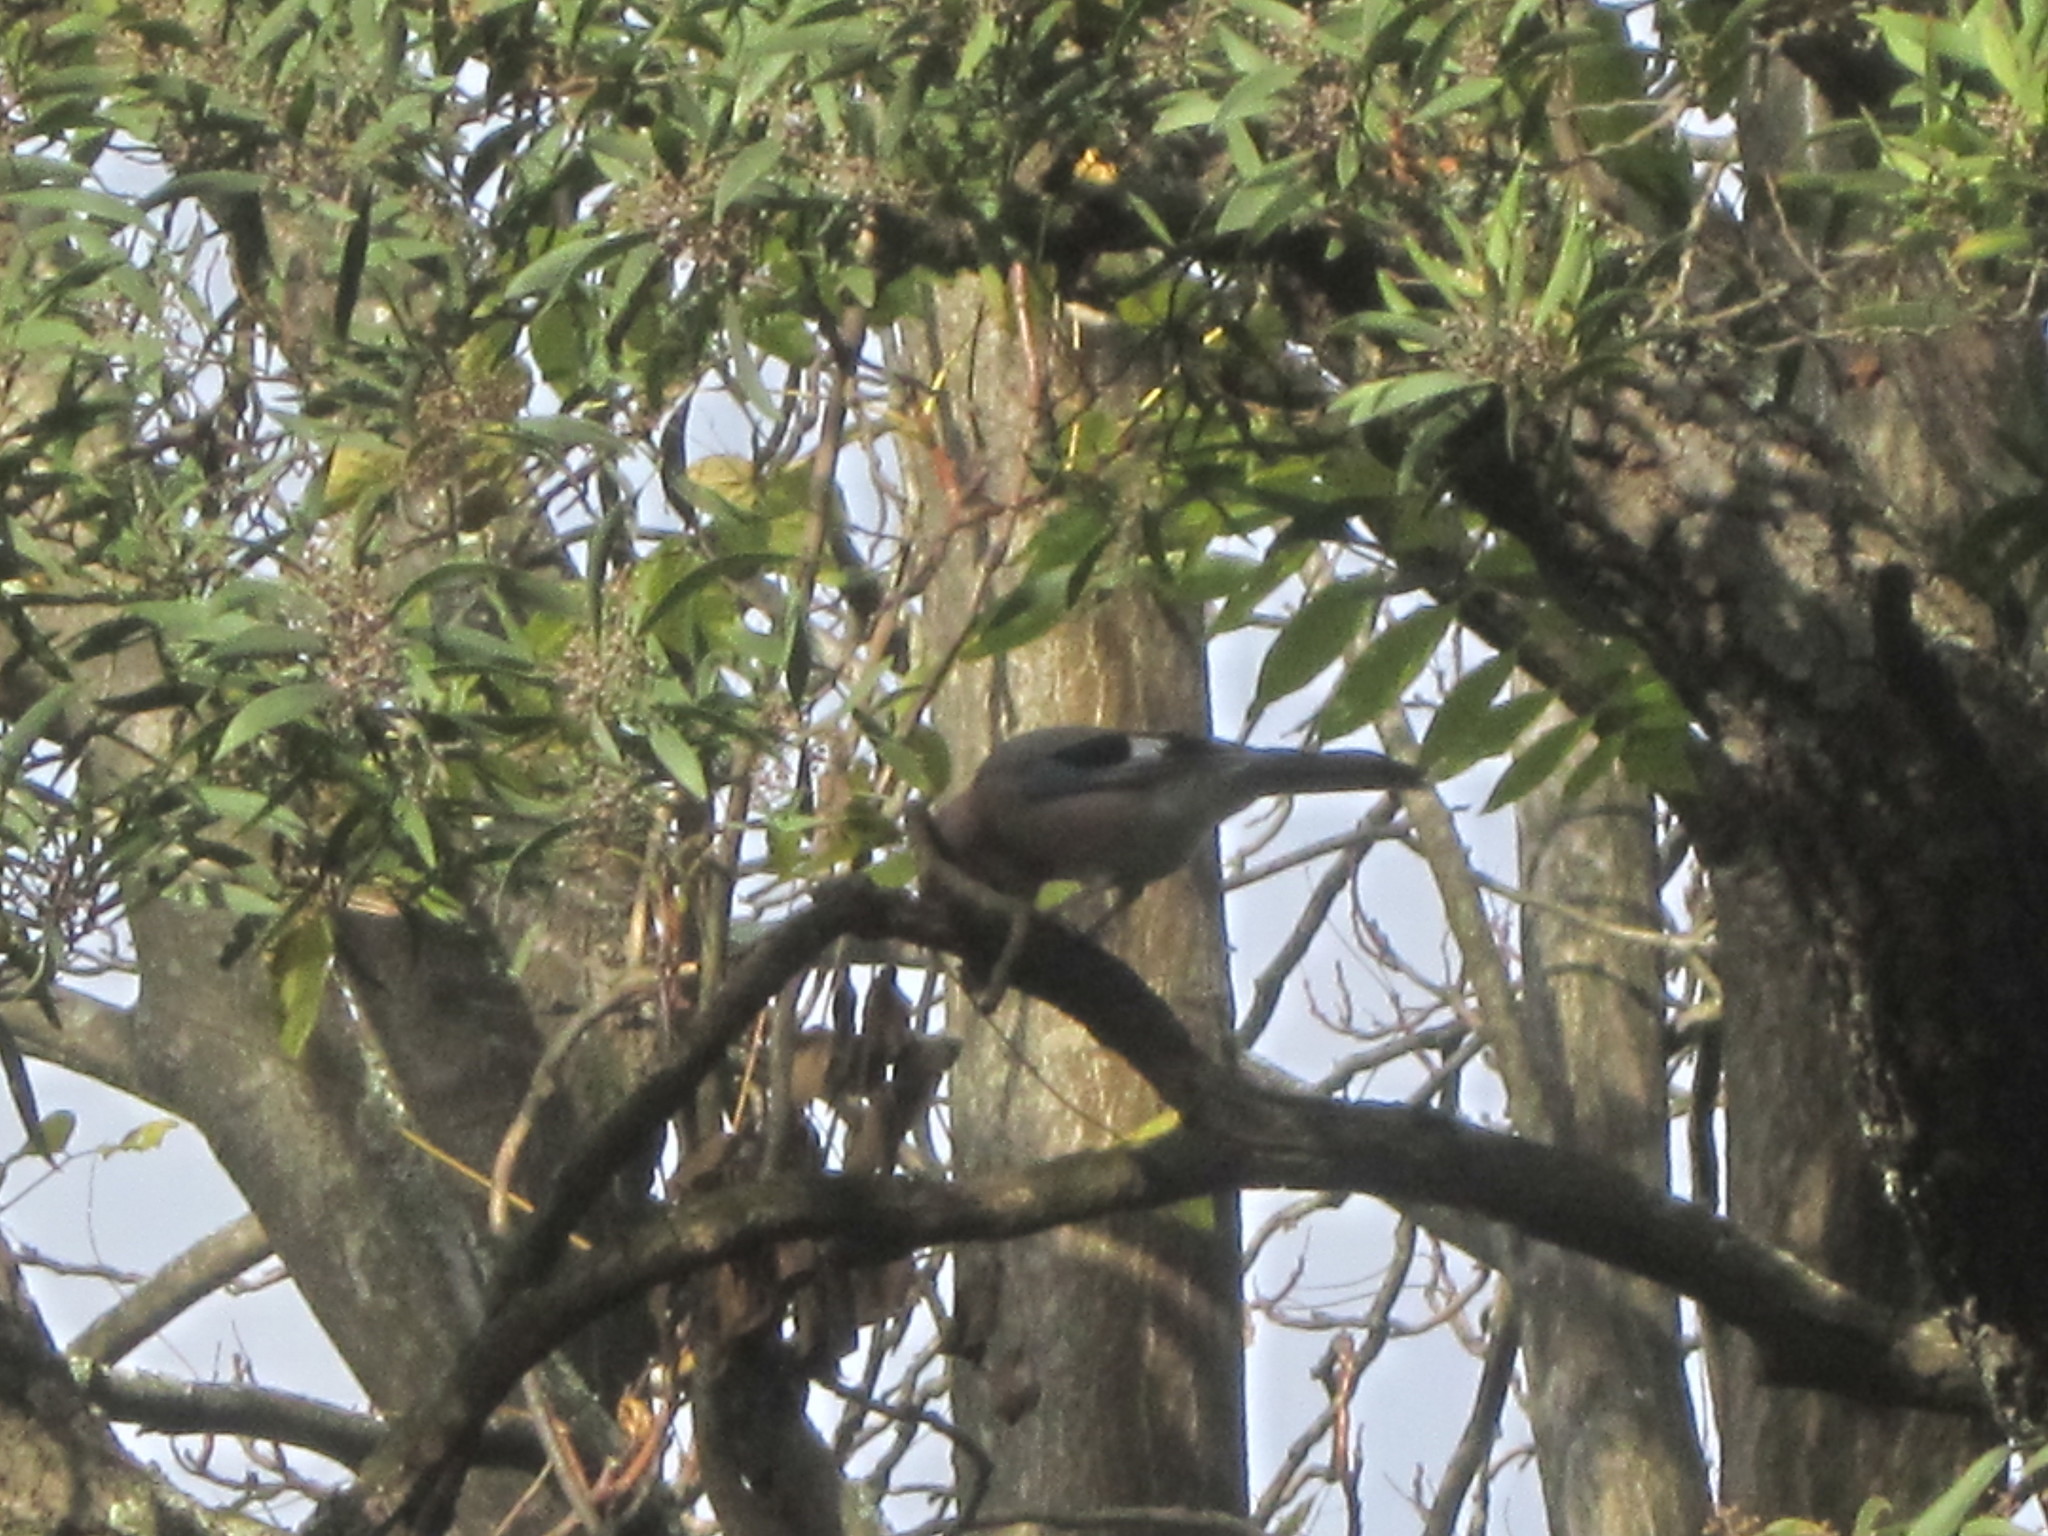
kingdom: Animalia
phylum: Chordata
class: Aves
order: Passeriformes
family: Corvidae
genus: Garrulus
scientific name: Garrulus glandarius
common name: Eurasian jay
